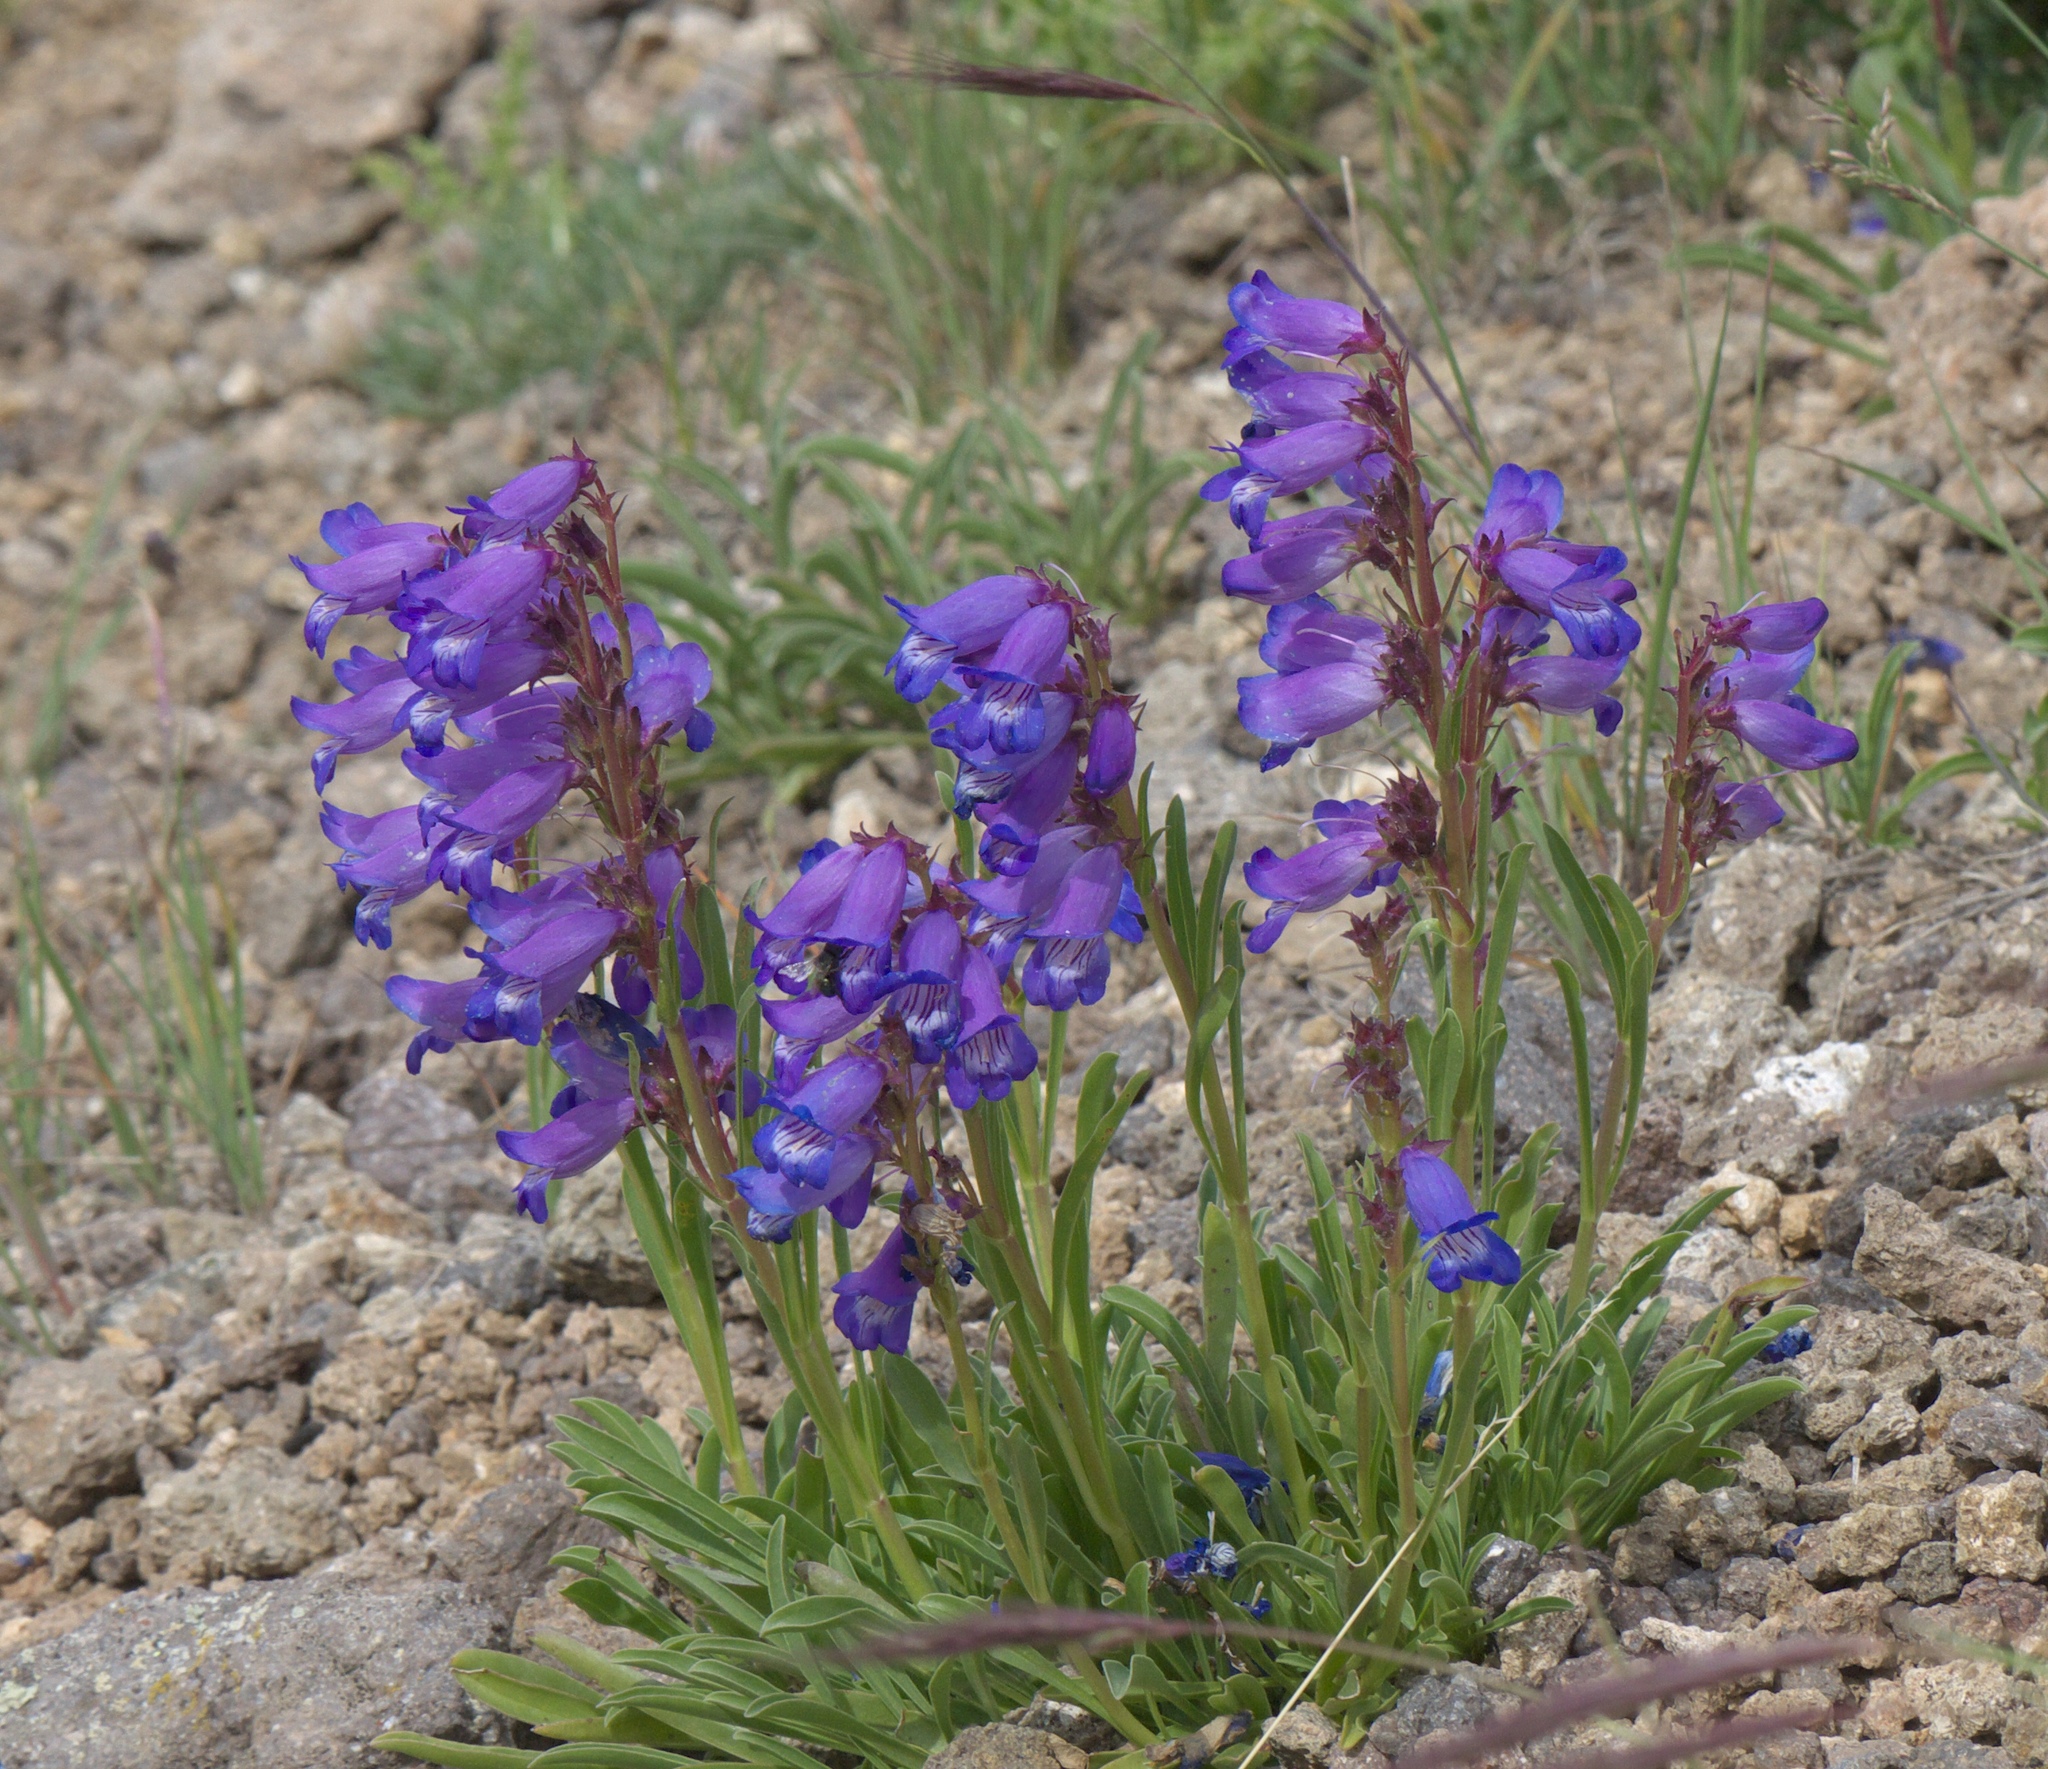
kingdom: Plantae
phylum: Tracheophyta
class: Magnoliopsida
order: Lamiales
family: Plantaginaceae
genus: Penstemon
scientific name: Penstemon hallii
